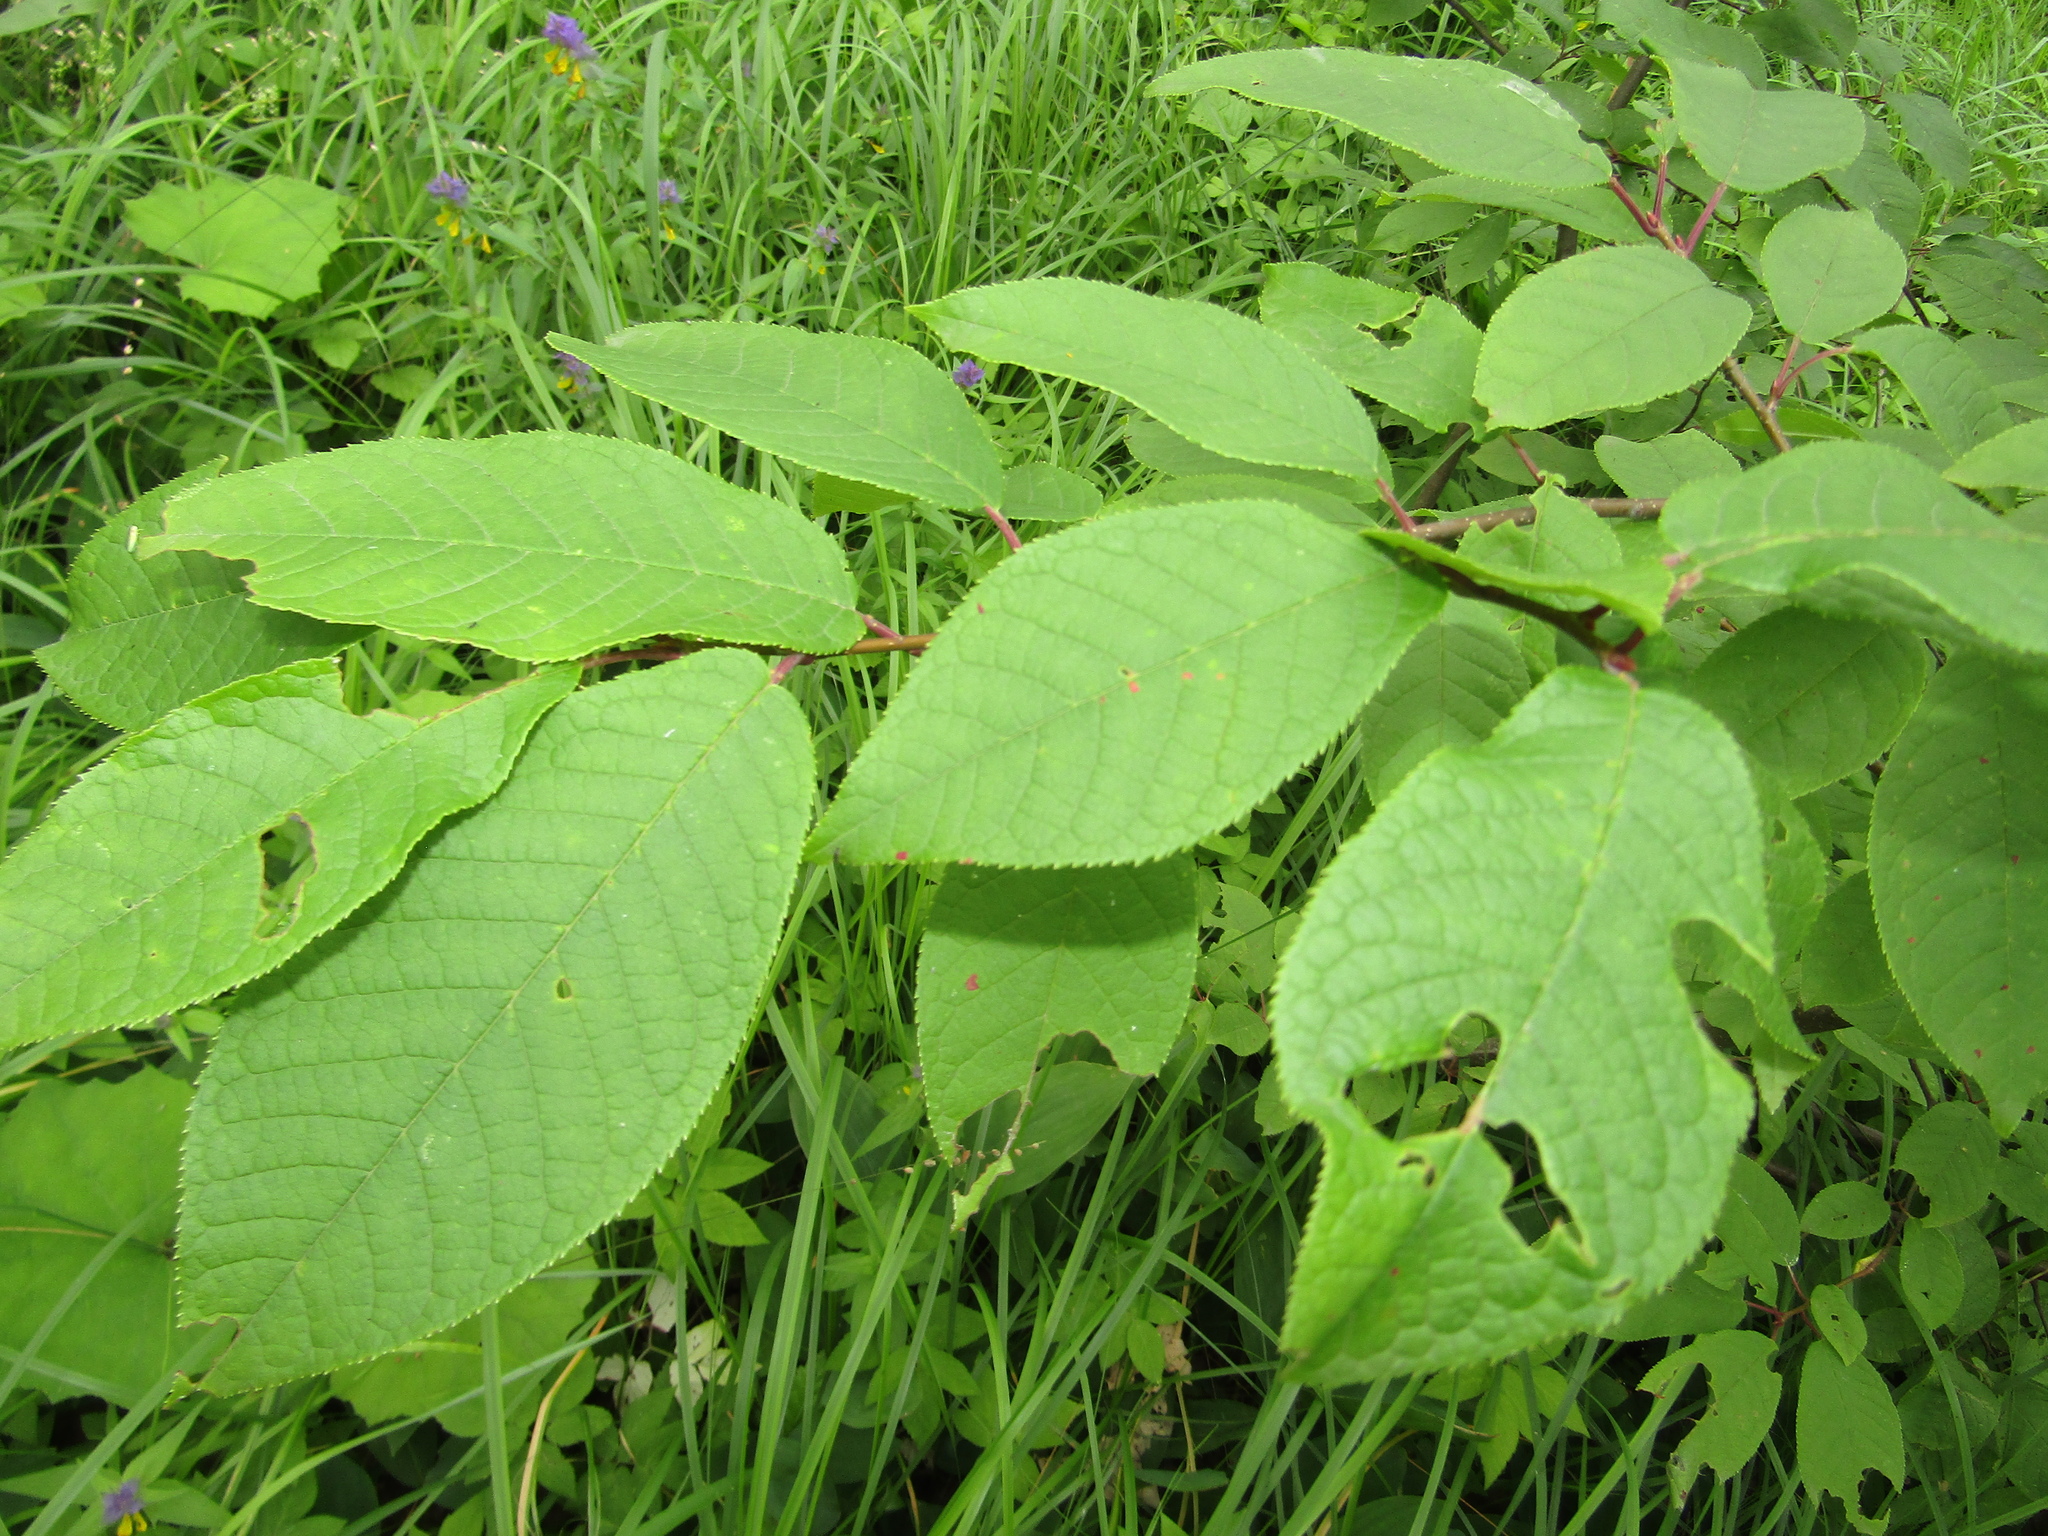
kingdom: Plantae
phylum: Tracheophyta
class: Magnoliopsida
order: Rosales
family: Rosaceae
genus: Prunus
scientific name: Prunus padus
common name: Bird cherry
